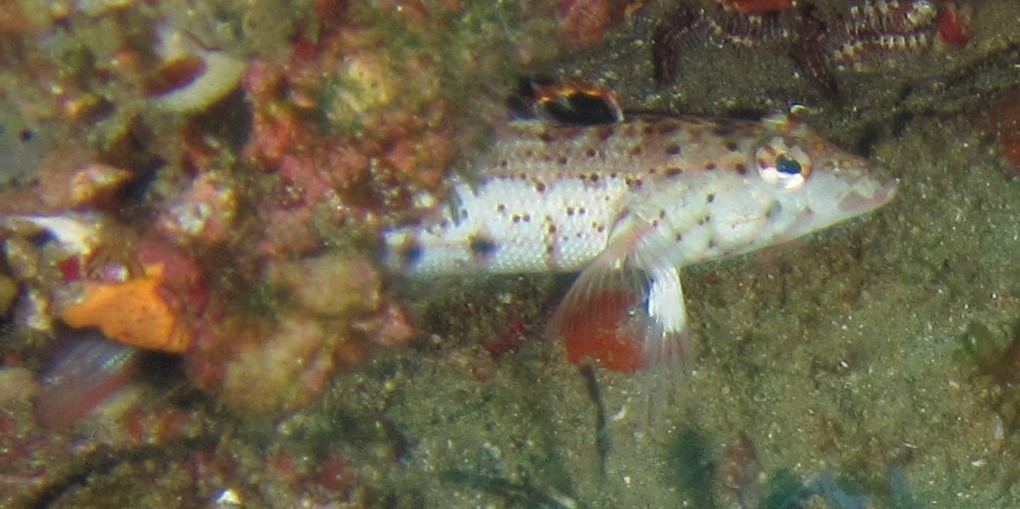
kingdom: Animalia
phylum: Chordata
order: Perciformes
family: Pinguipedidae
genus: Parapercis
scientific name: Parapercis punctulata
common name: Spotted sandperch
